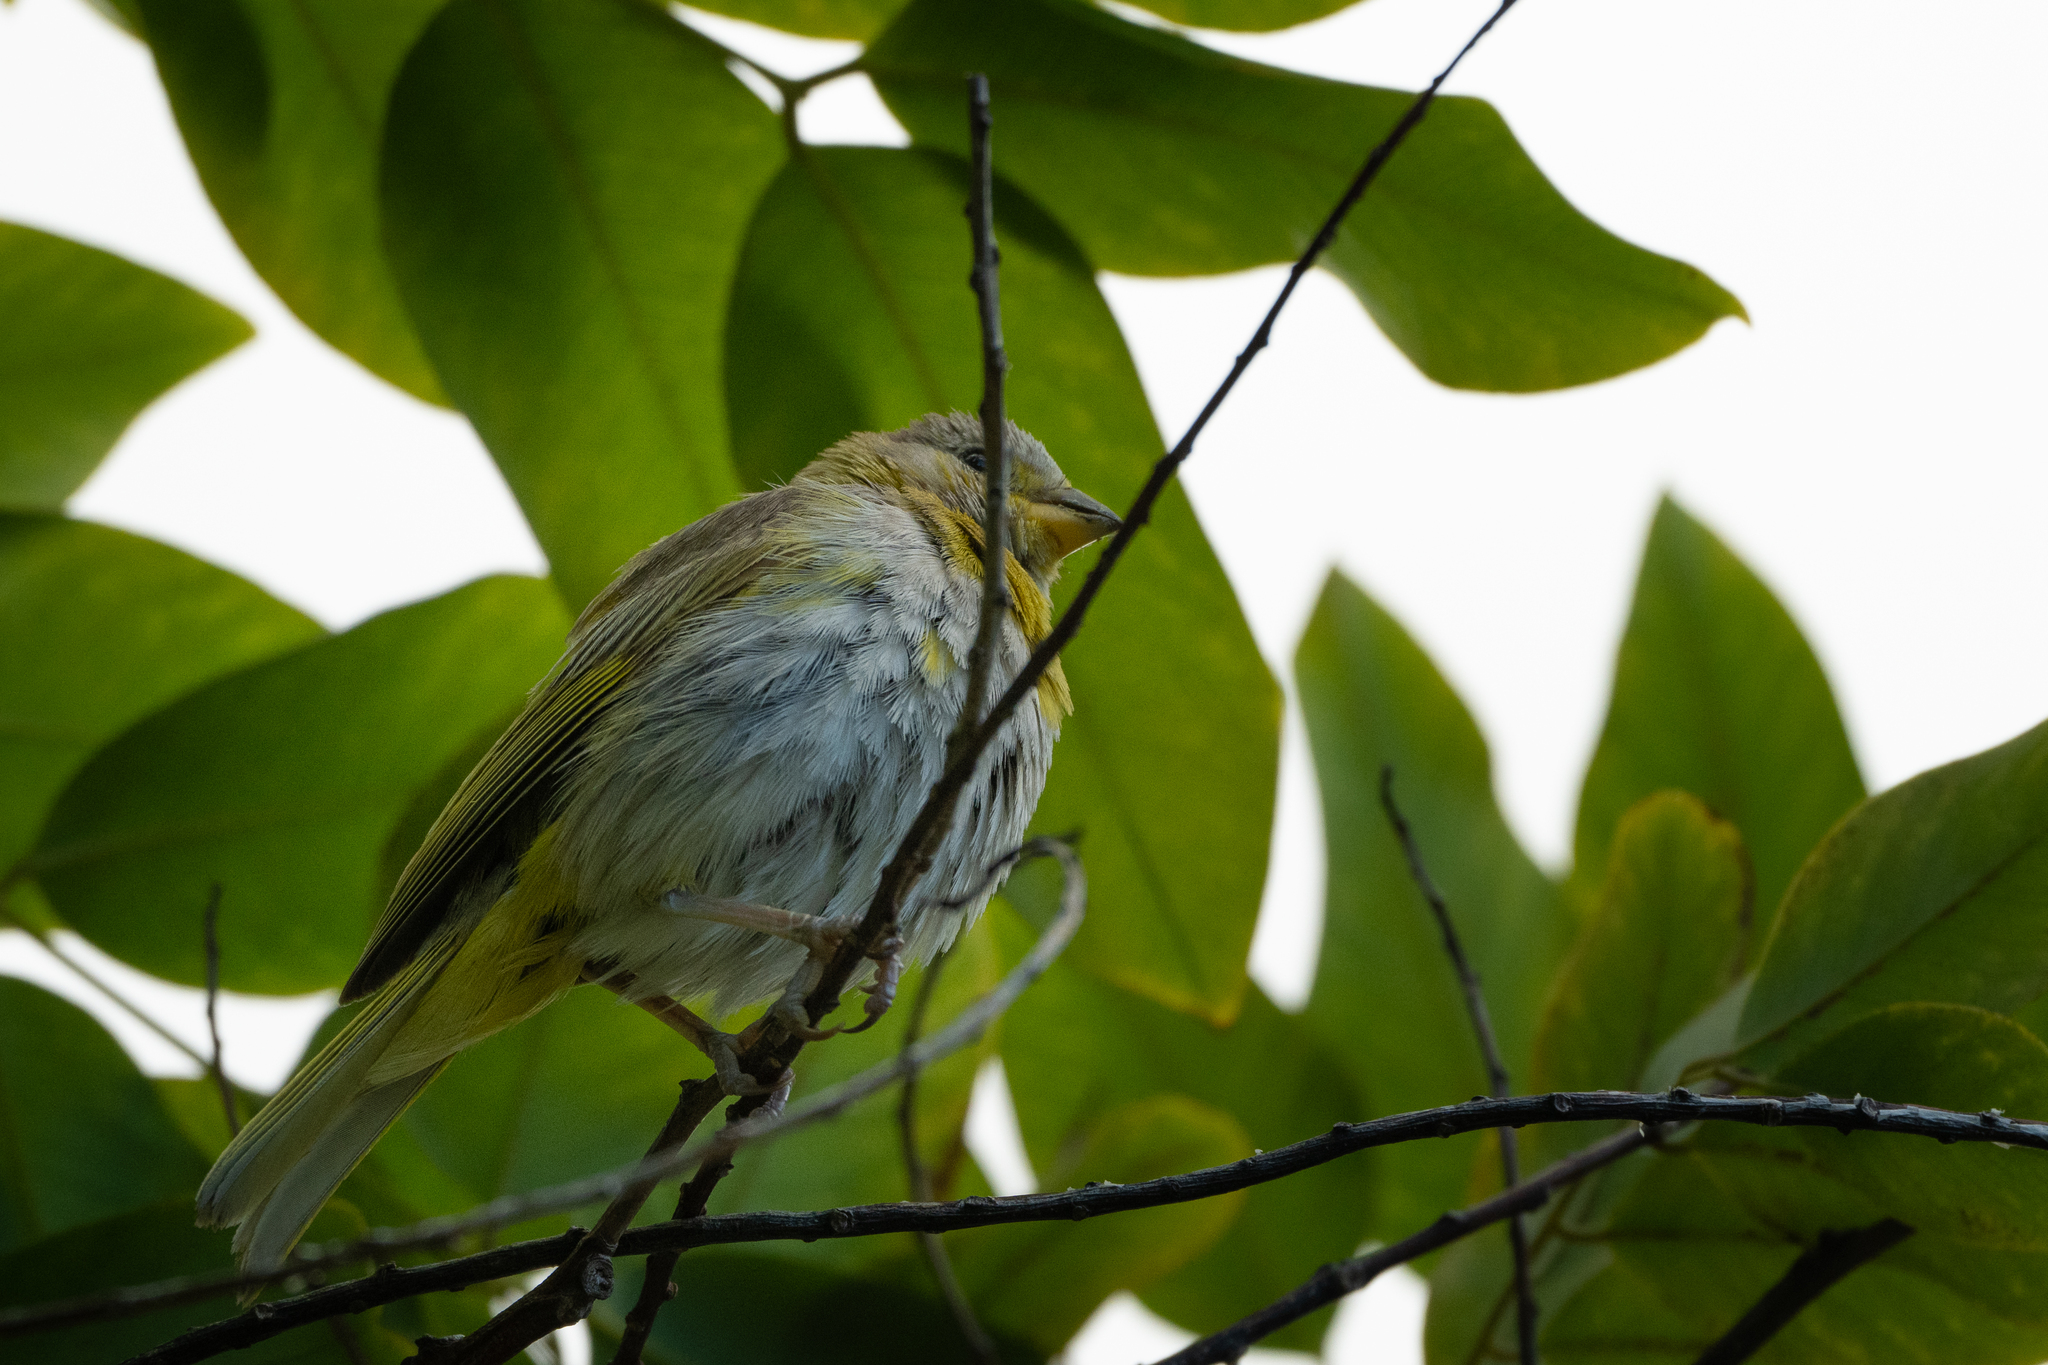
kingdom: Animalia
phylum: Chordata
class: Aves
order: Passeriformes
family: Thraupidae
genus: Sicalis
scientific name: Sicalis flaveola
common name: Saffron finch
